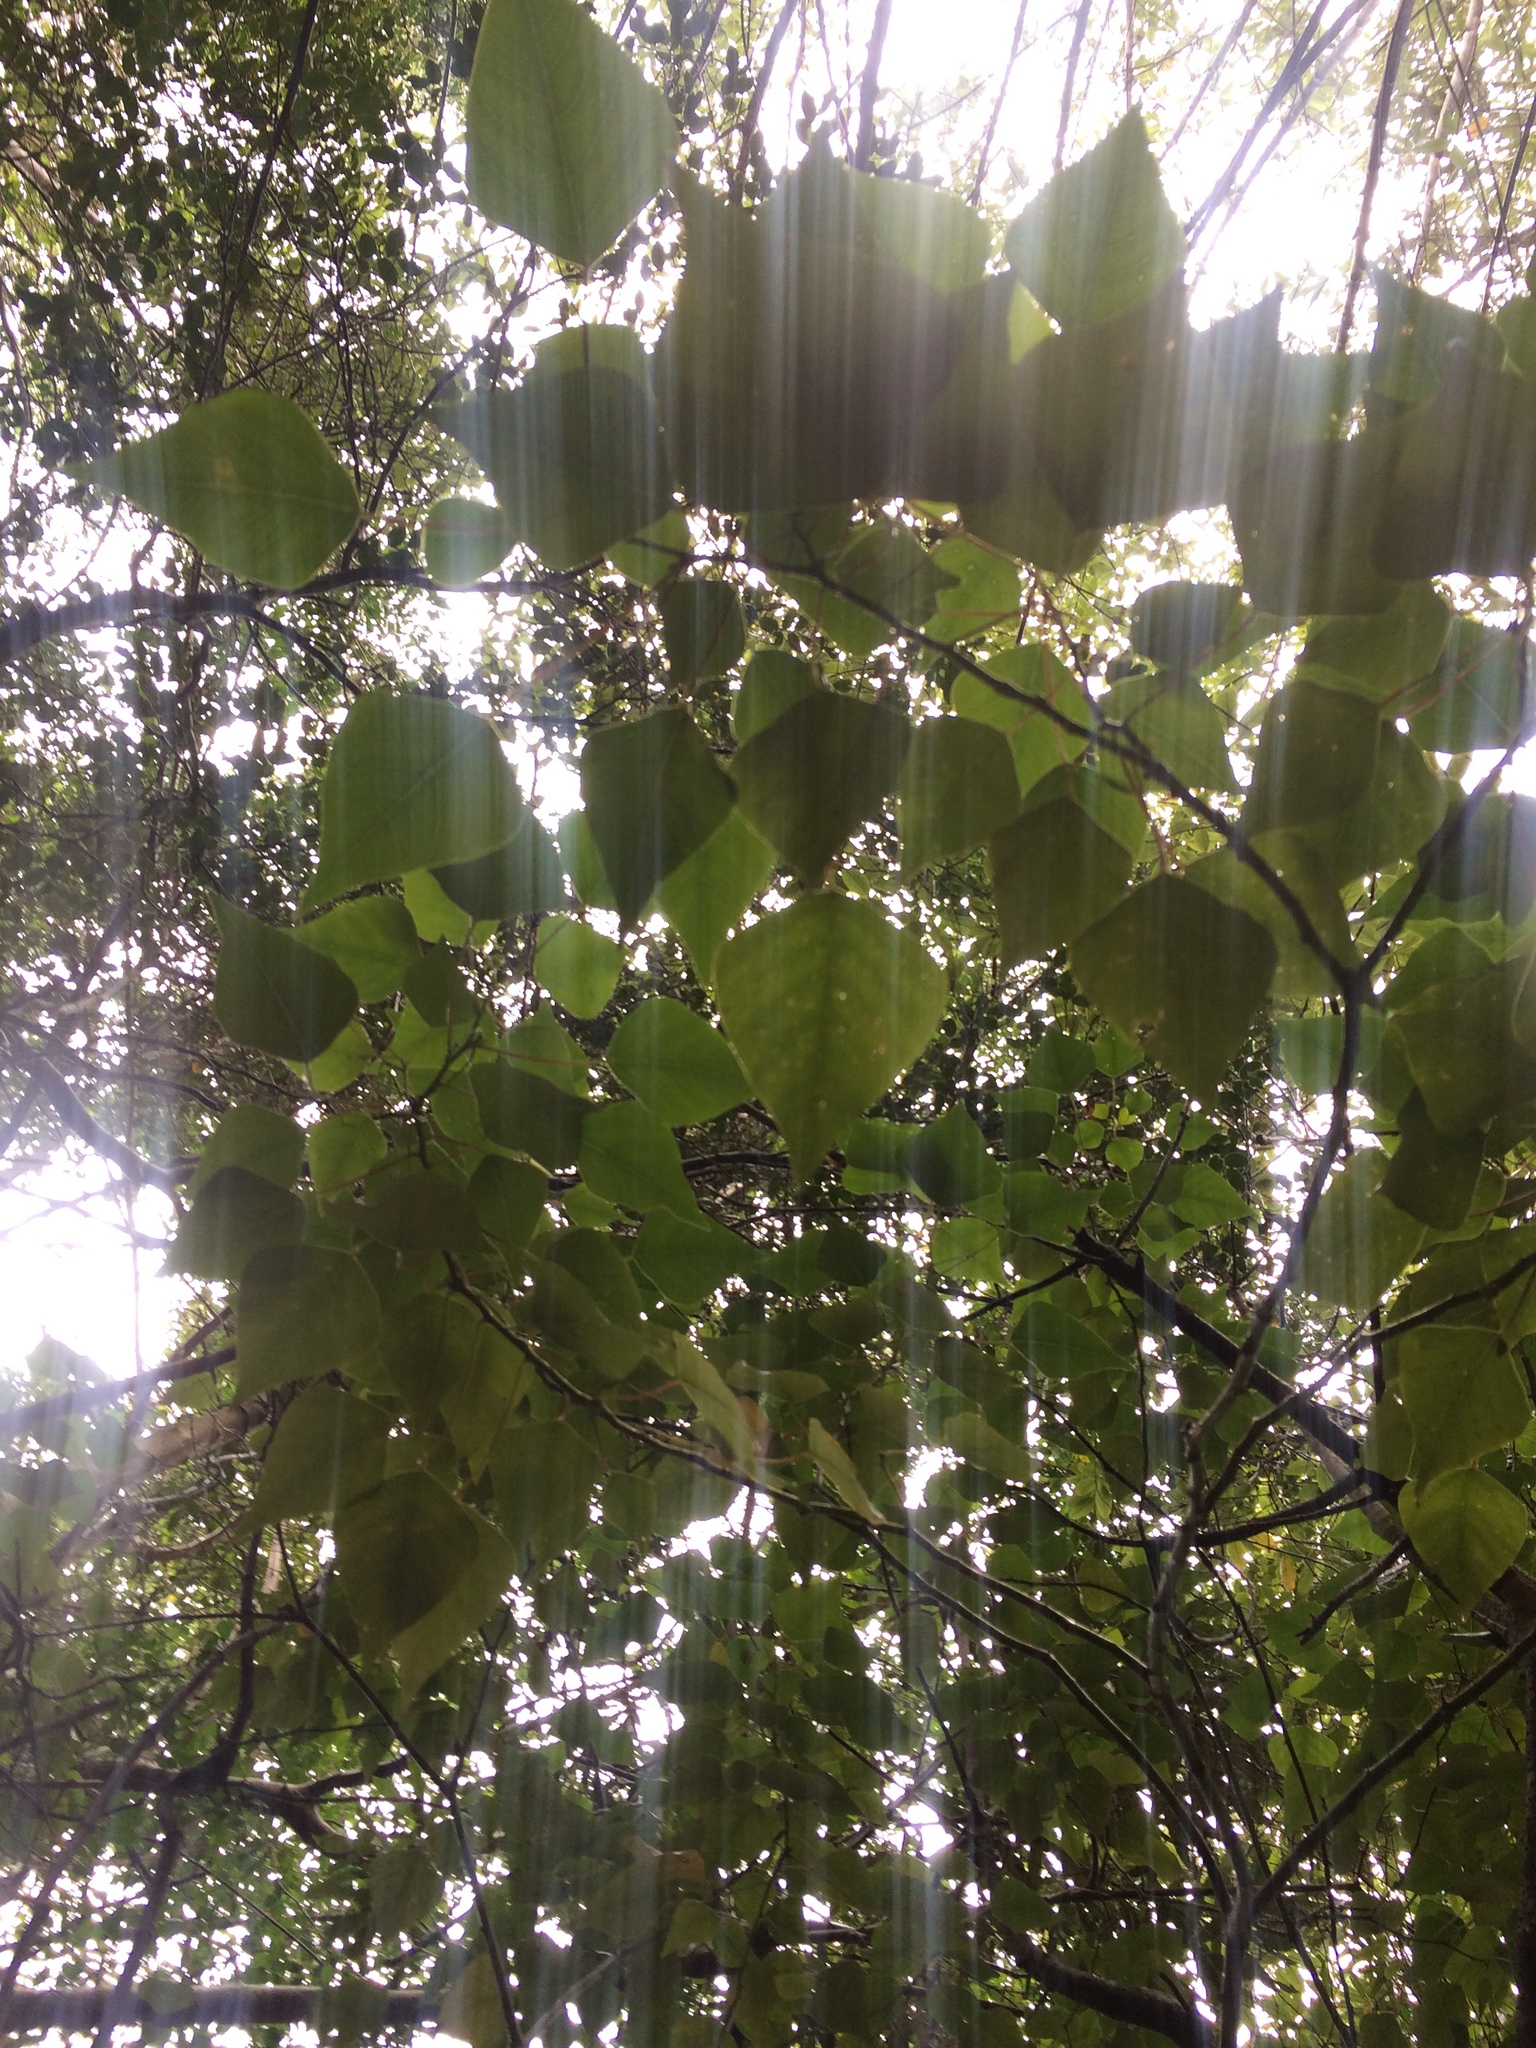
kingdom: Plantae
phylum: Tracheophyta
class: Magnoliopsida
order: Malpighiales
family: Euphorbiaceae
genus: Homalanthus
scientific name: Homalanthus populifolius
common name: Queensland poplar
